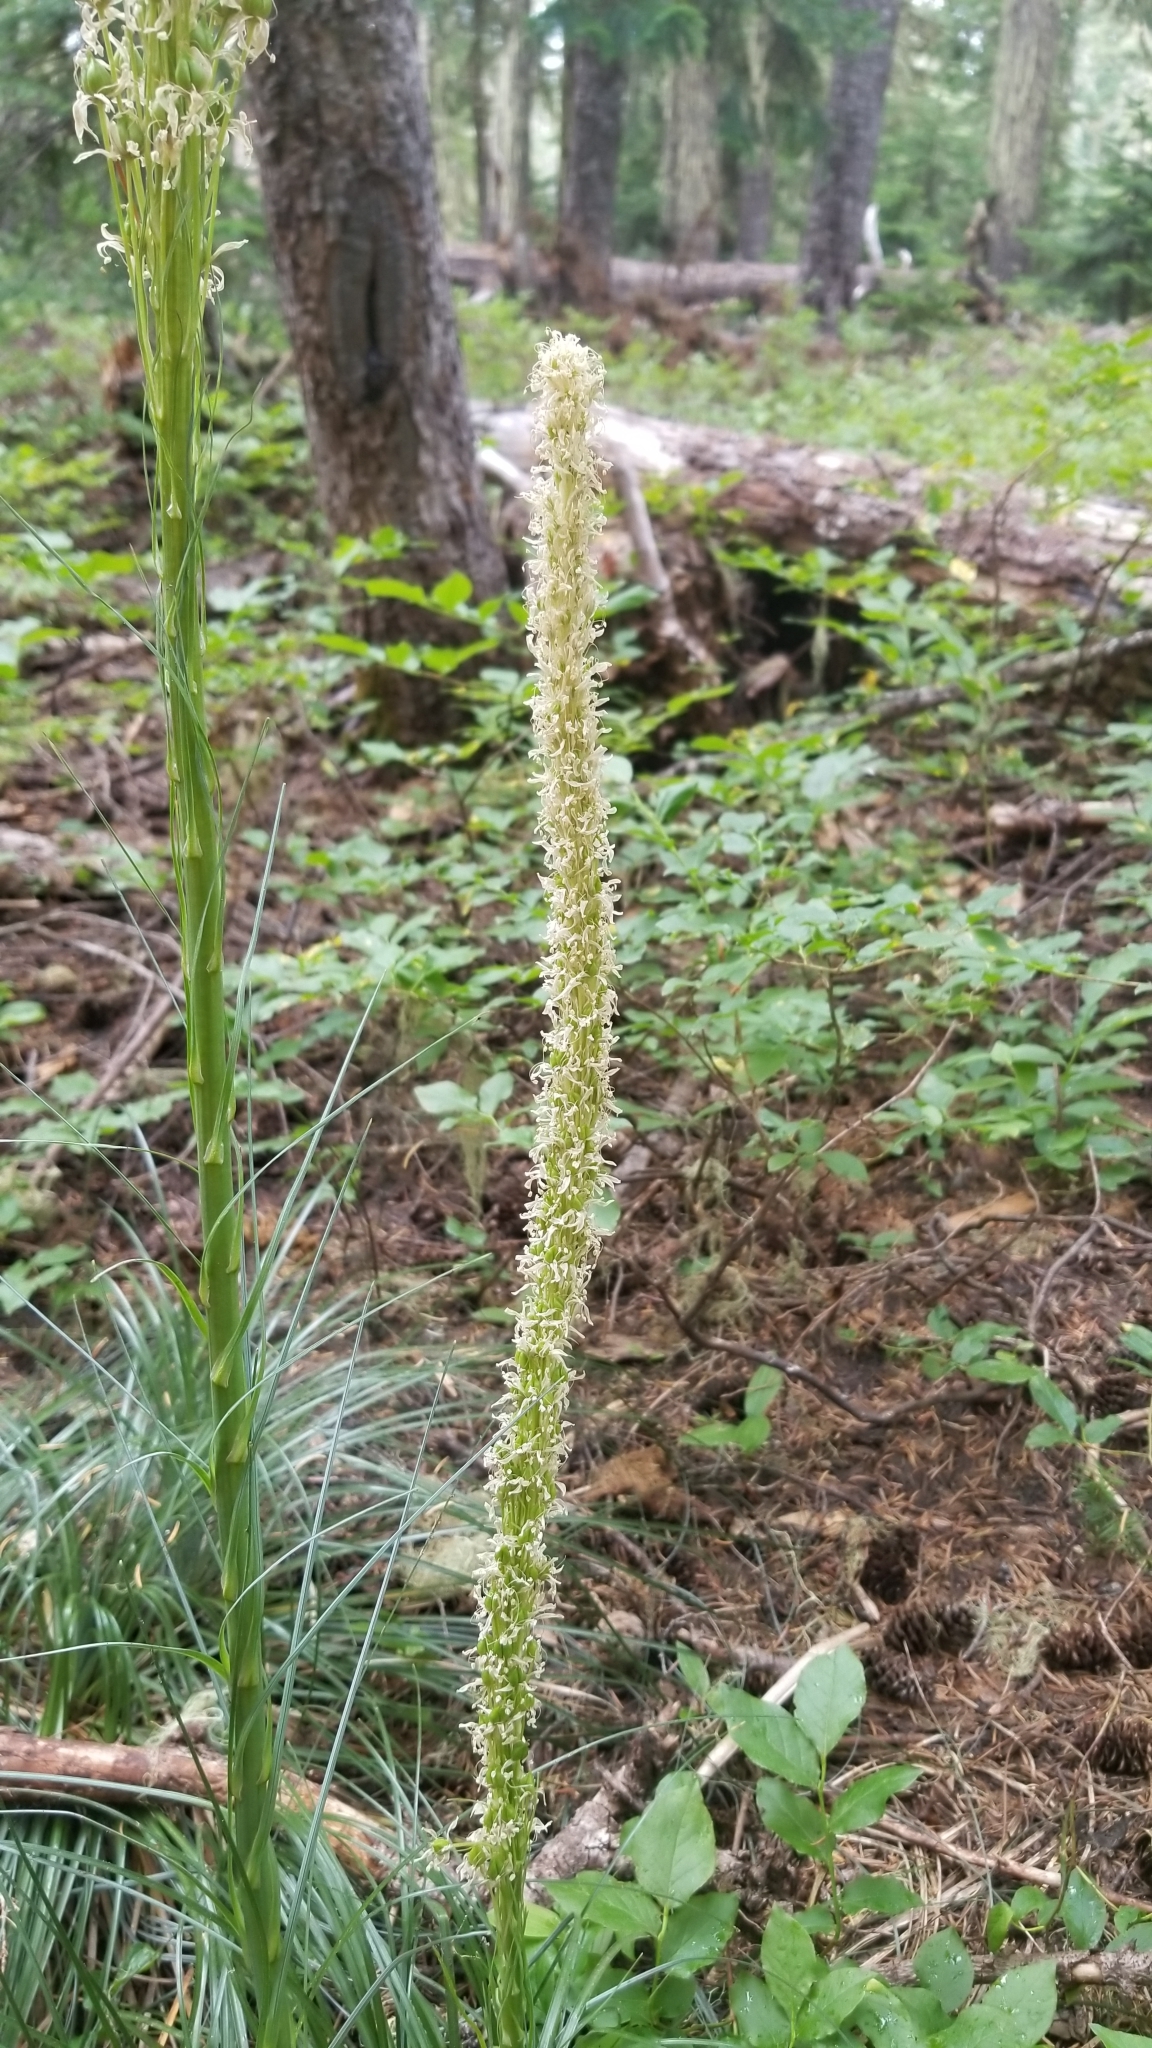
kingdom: Plantae
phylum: Tracheophyta
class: Liliopsida
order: Liliales
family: Melanthiaceae
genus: Xerophyllum
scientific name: Xerophyllum tenax
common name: Bear-grass
